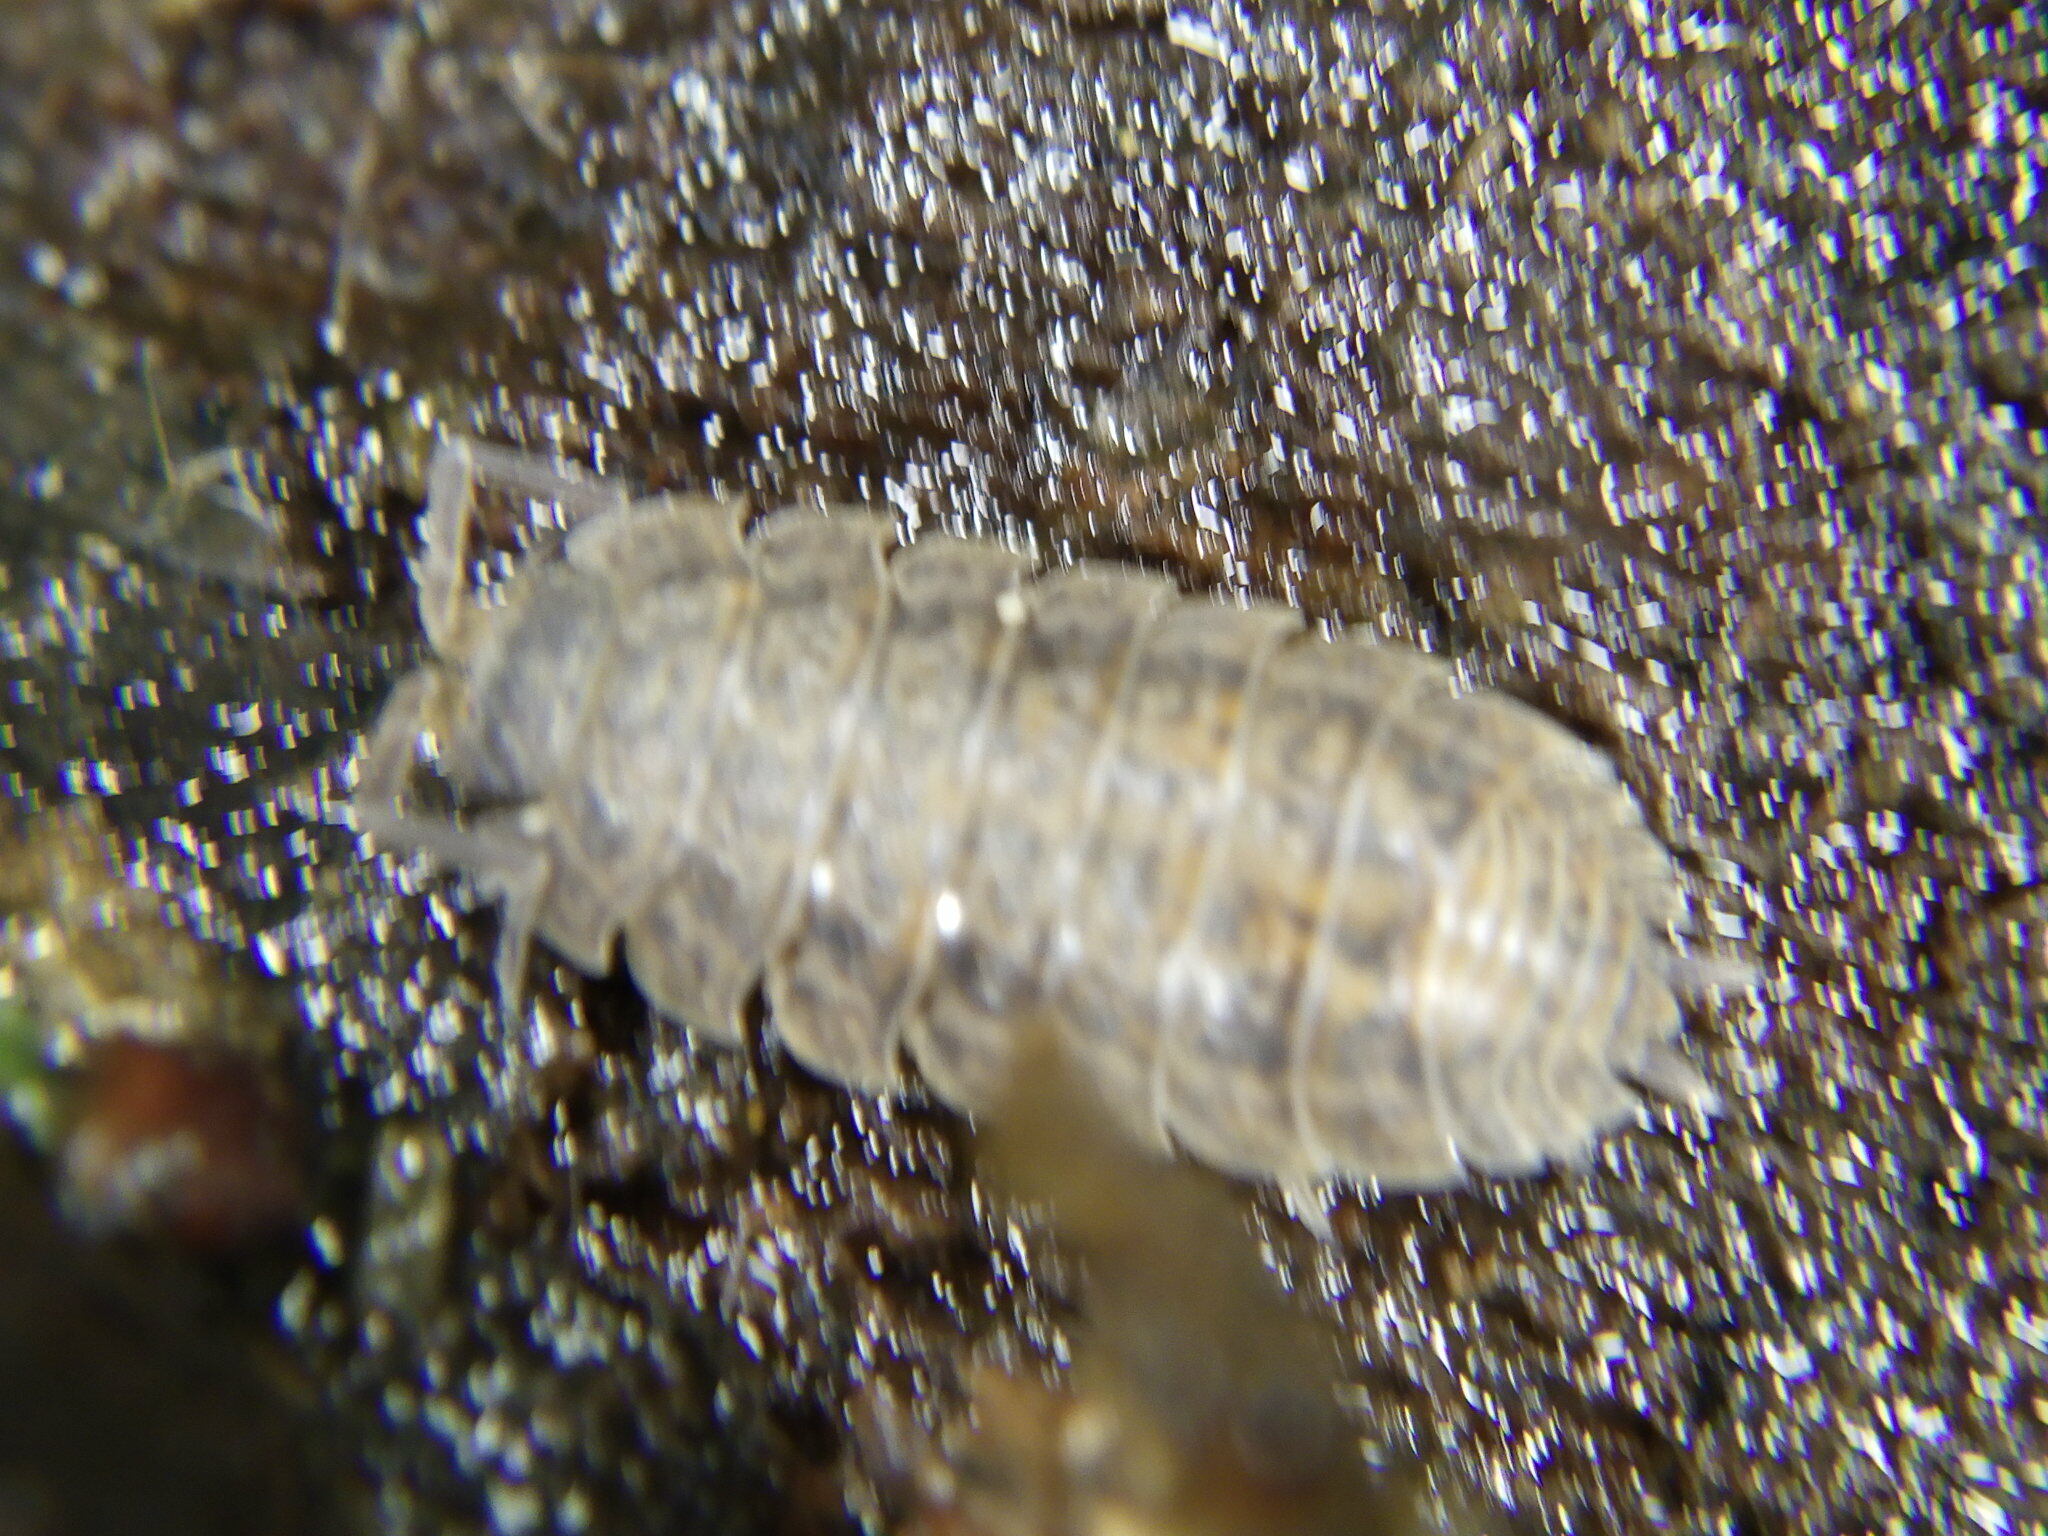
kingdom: Animalia
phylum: Arthropoda
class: Malacostraca
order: Isopoda
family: Trachelipodidae
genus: Trachelipus
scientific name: Trachelipus rathkii
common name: Isopod
